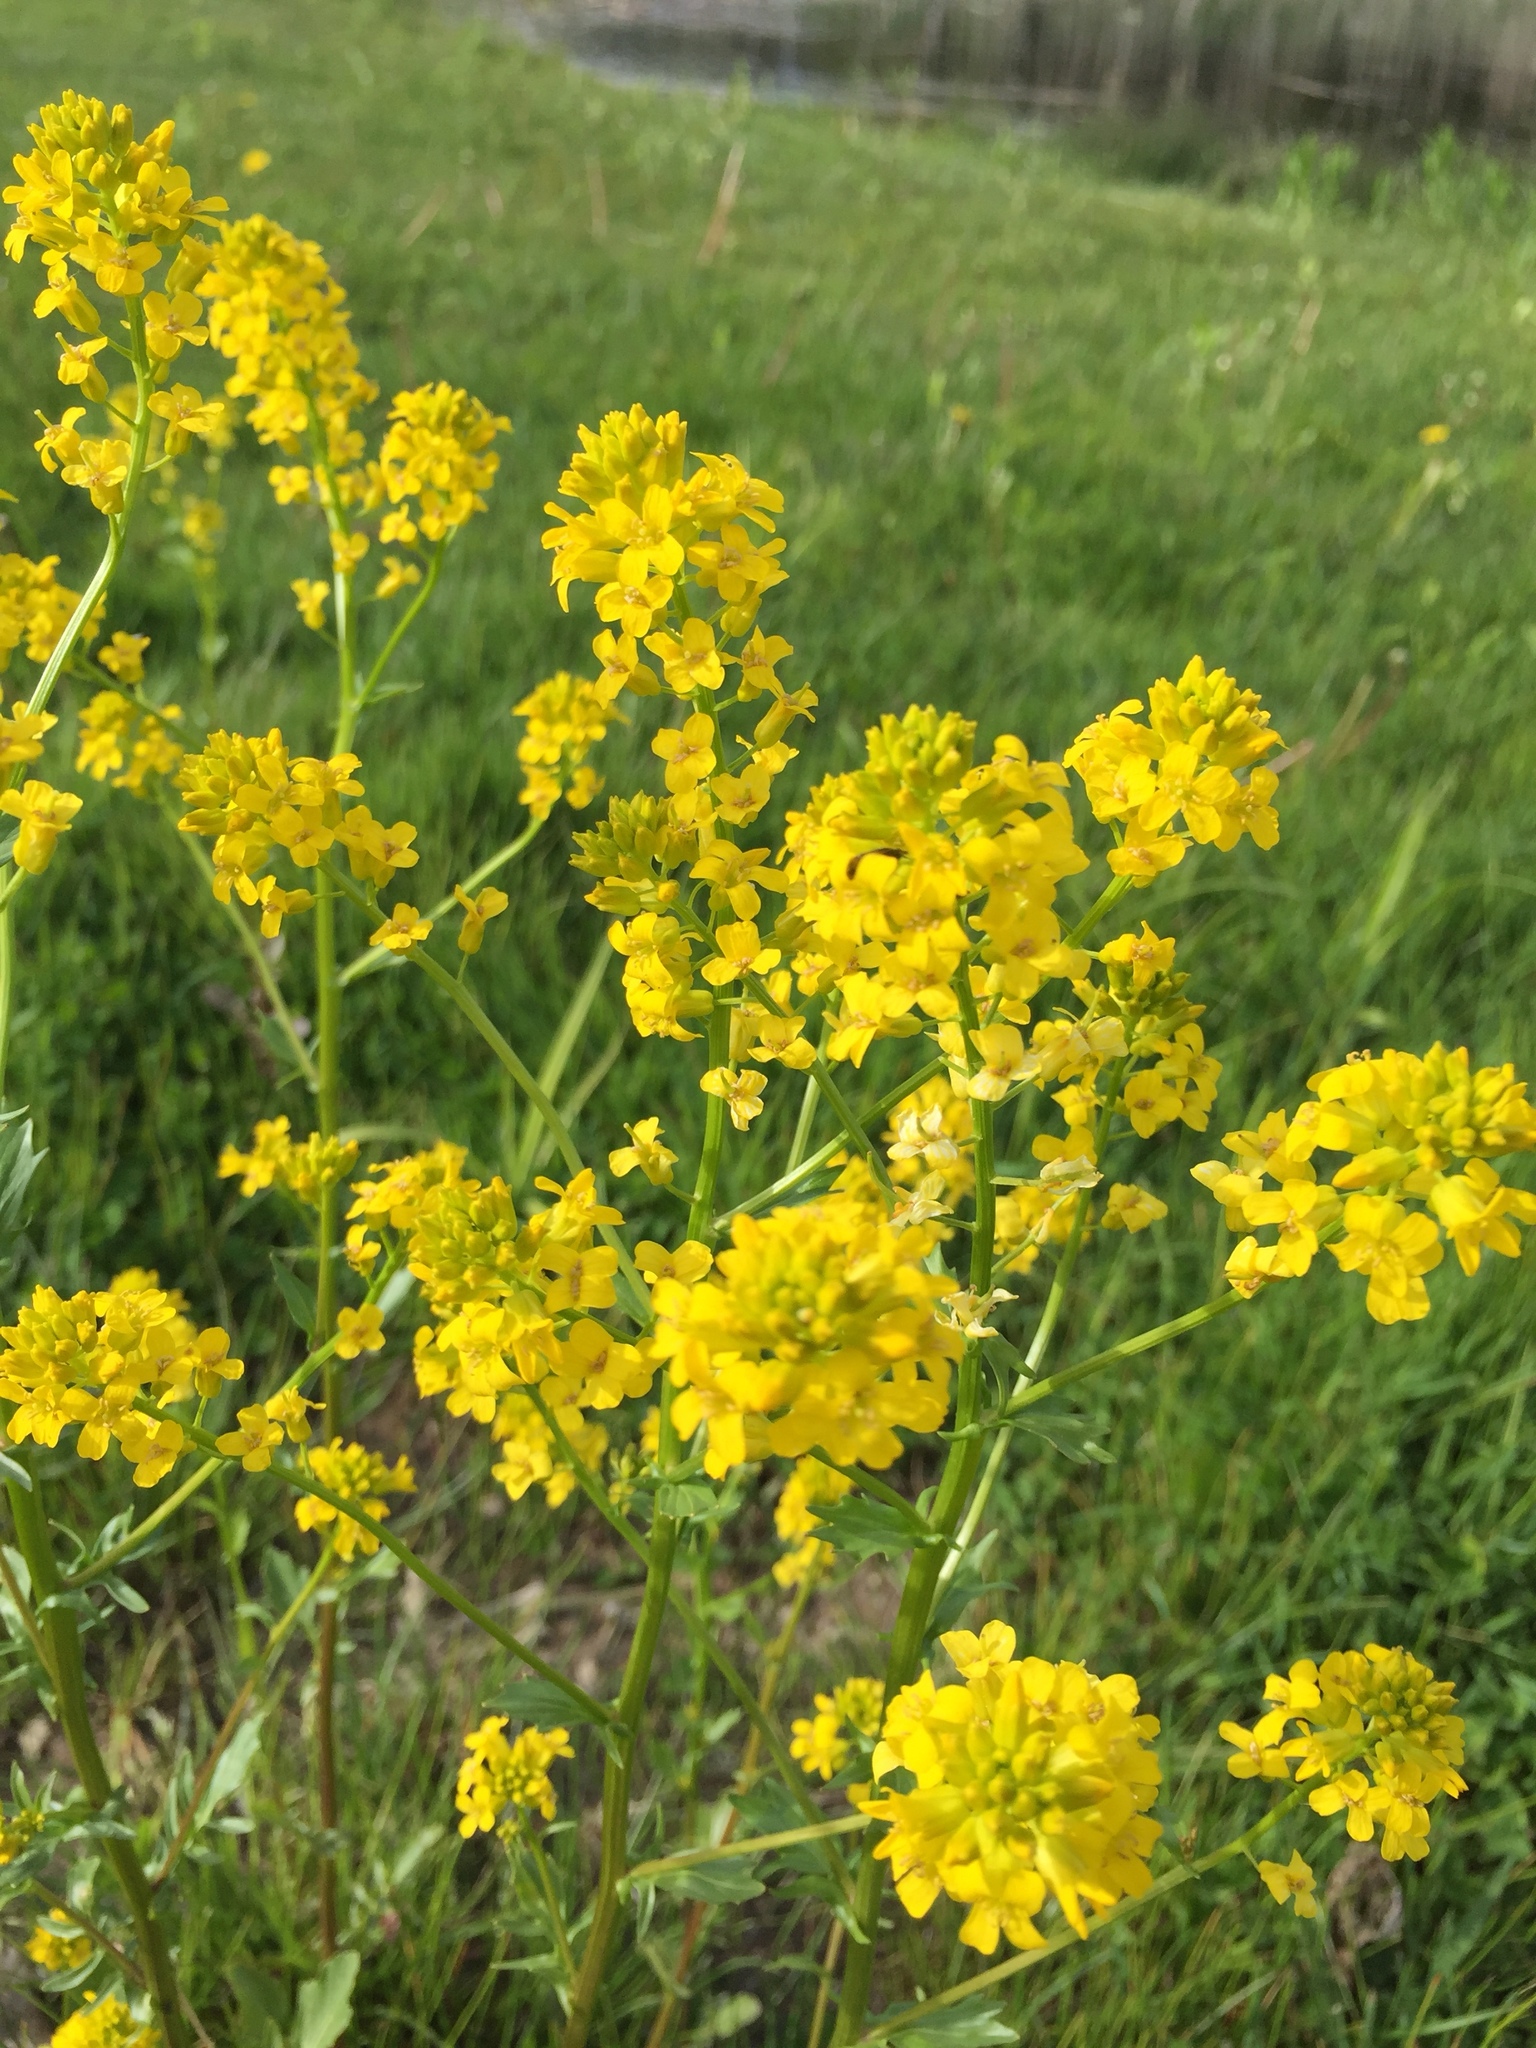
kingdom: Plantae
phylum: Tracheophyta
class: Magnoliopsida
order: Brassicales
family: Brassicaceae
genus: Barbarea
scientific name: Barbarea vulgaris
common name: Cressy-greens
